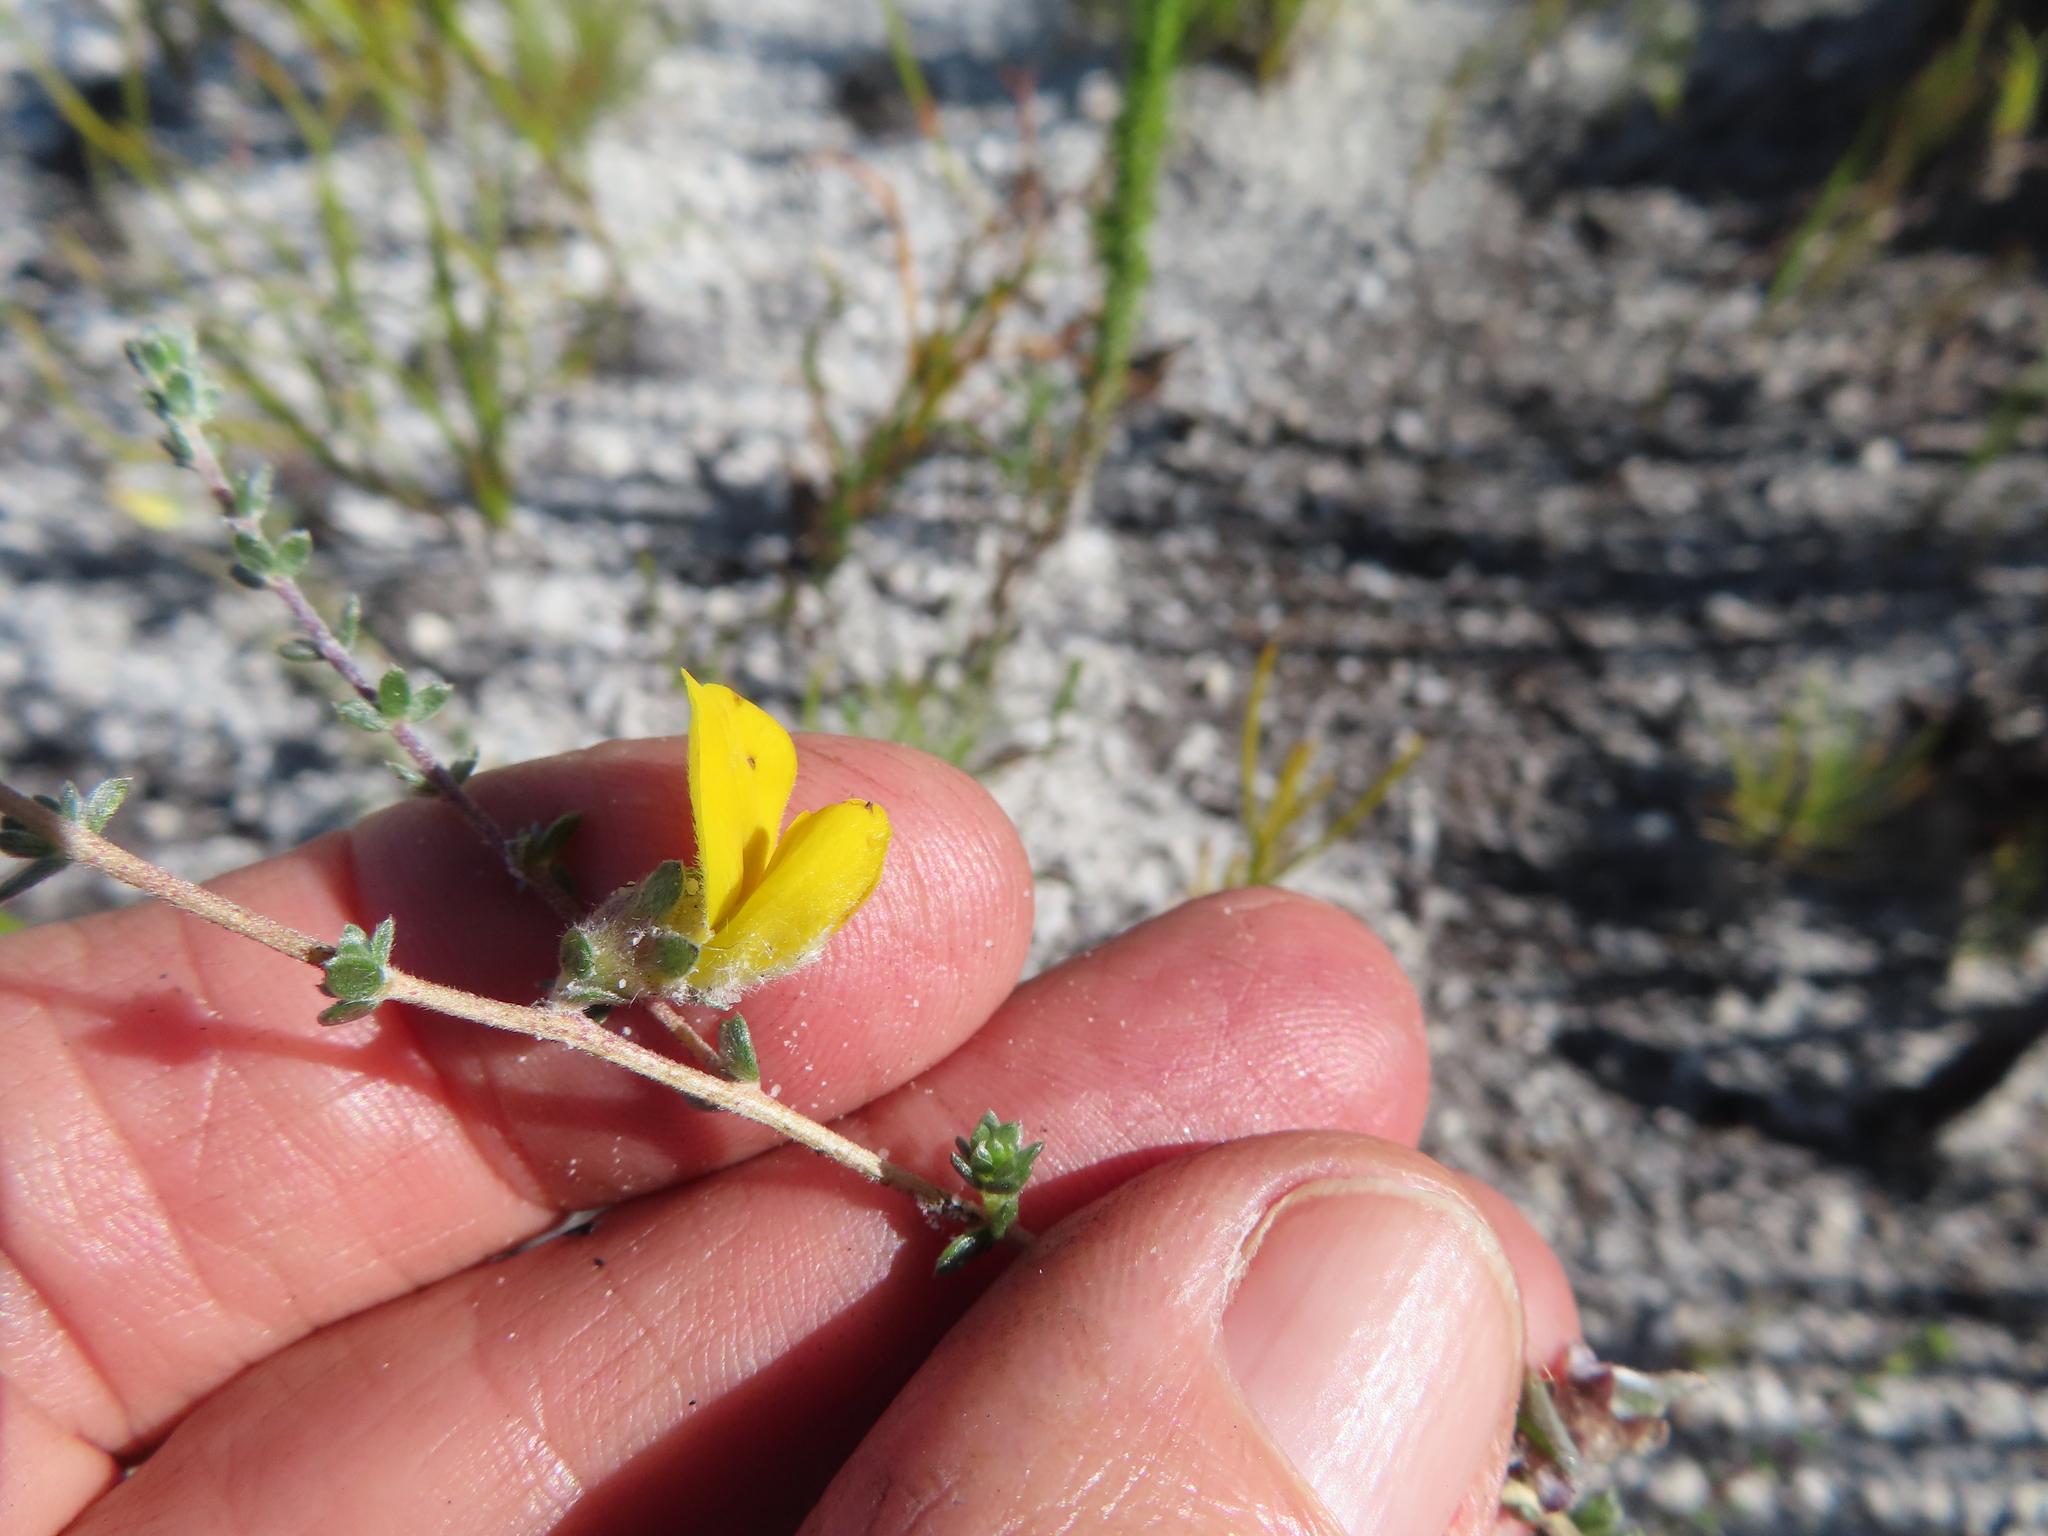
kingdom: Plantae
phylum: Tracheophyta
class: Magnoliopsida
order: Fabales
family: Fabaceae
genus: Aspalathus
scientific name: Aspalathus intervallaris
